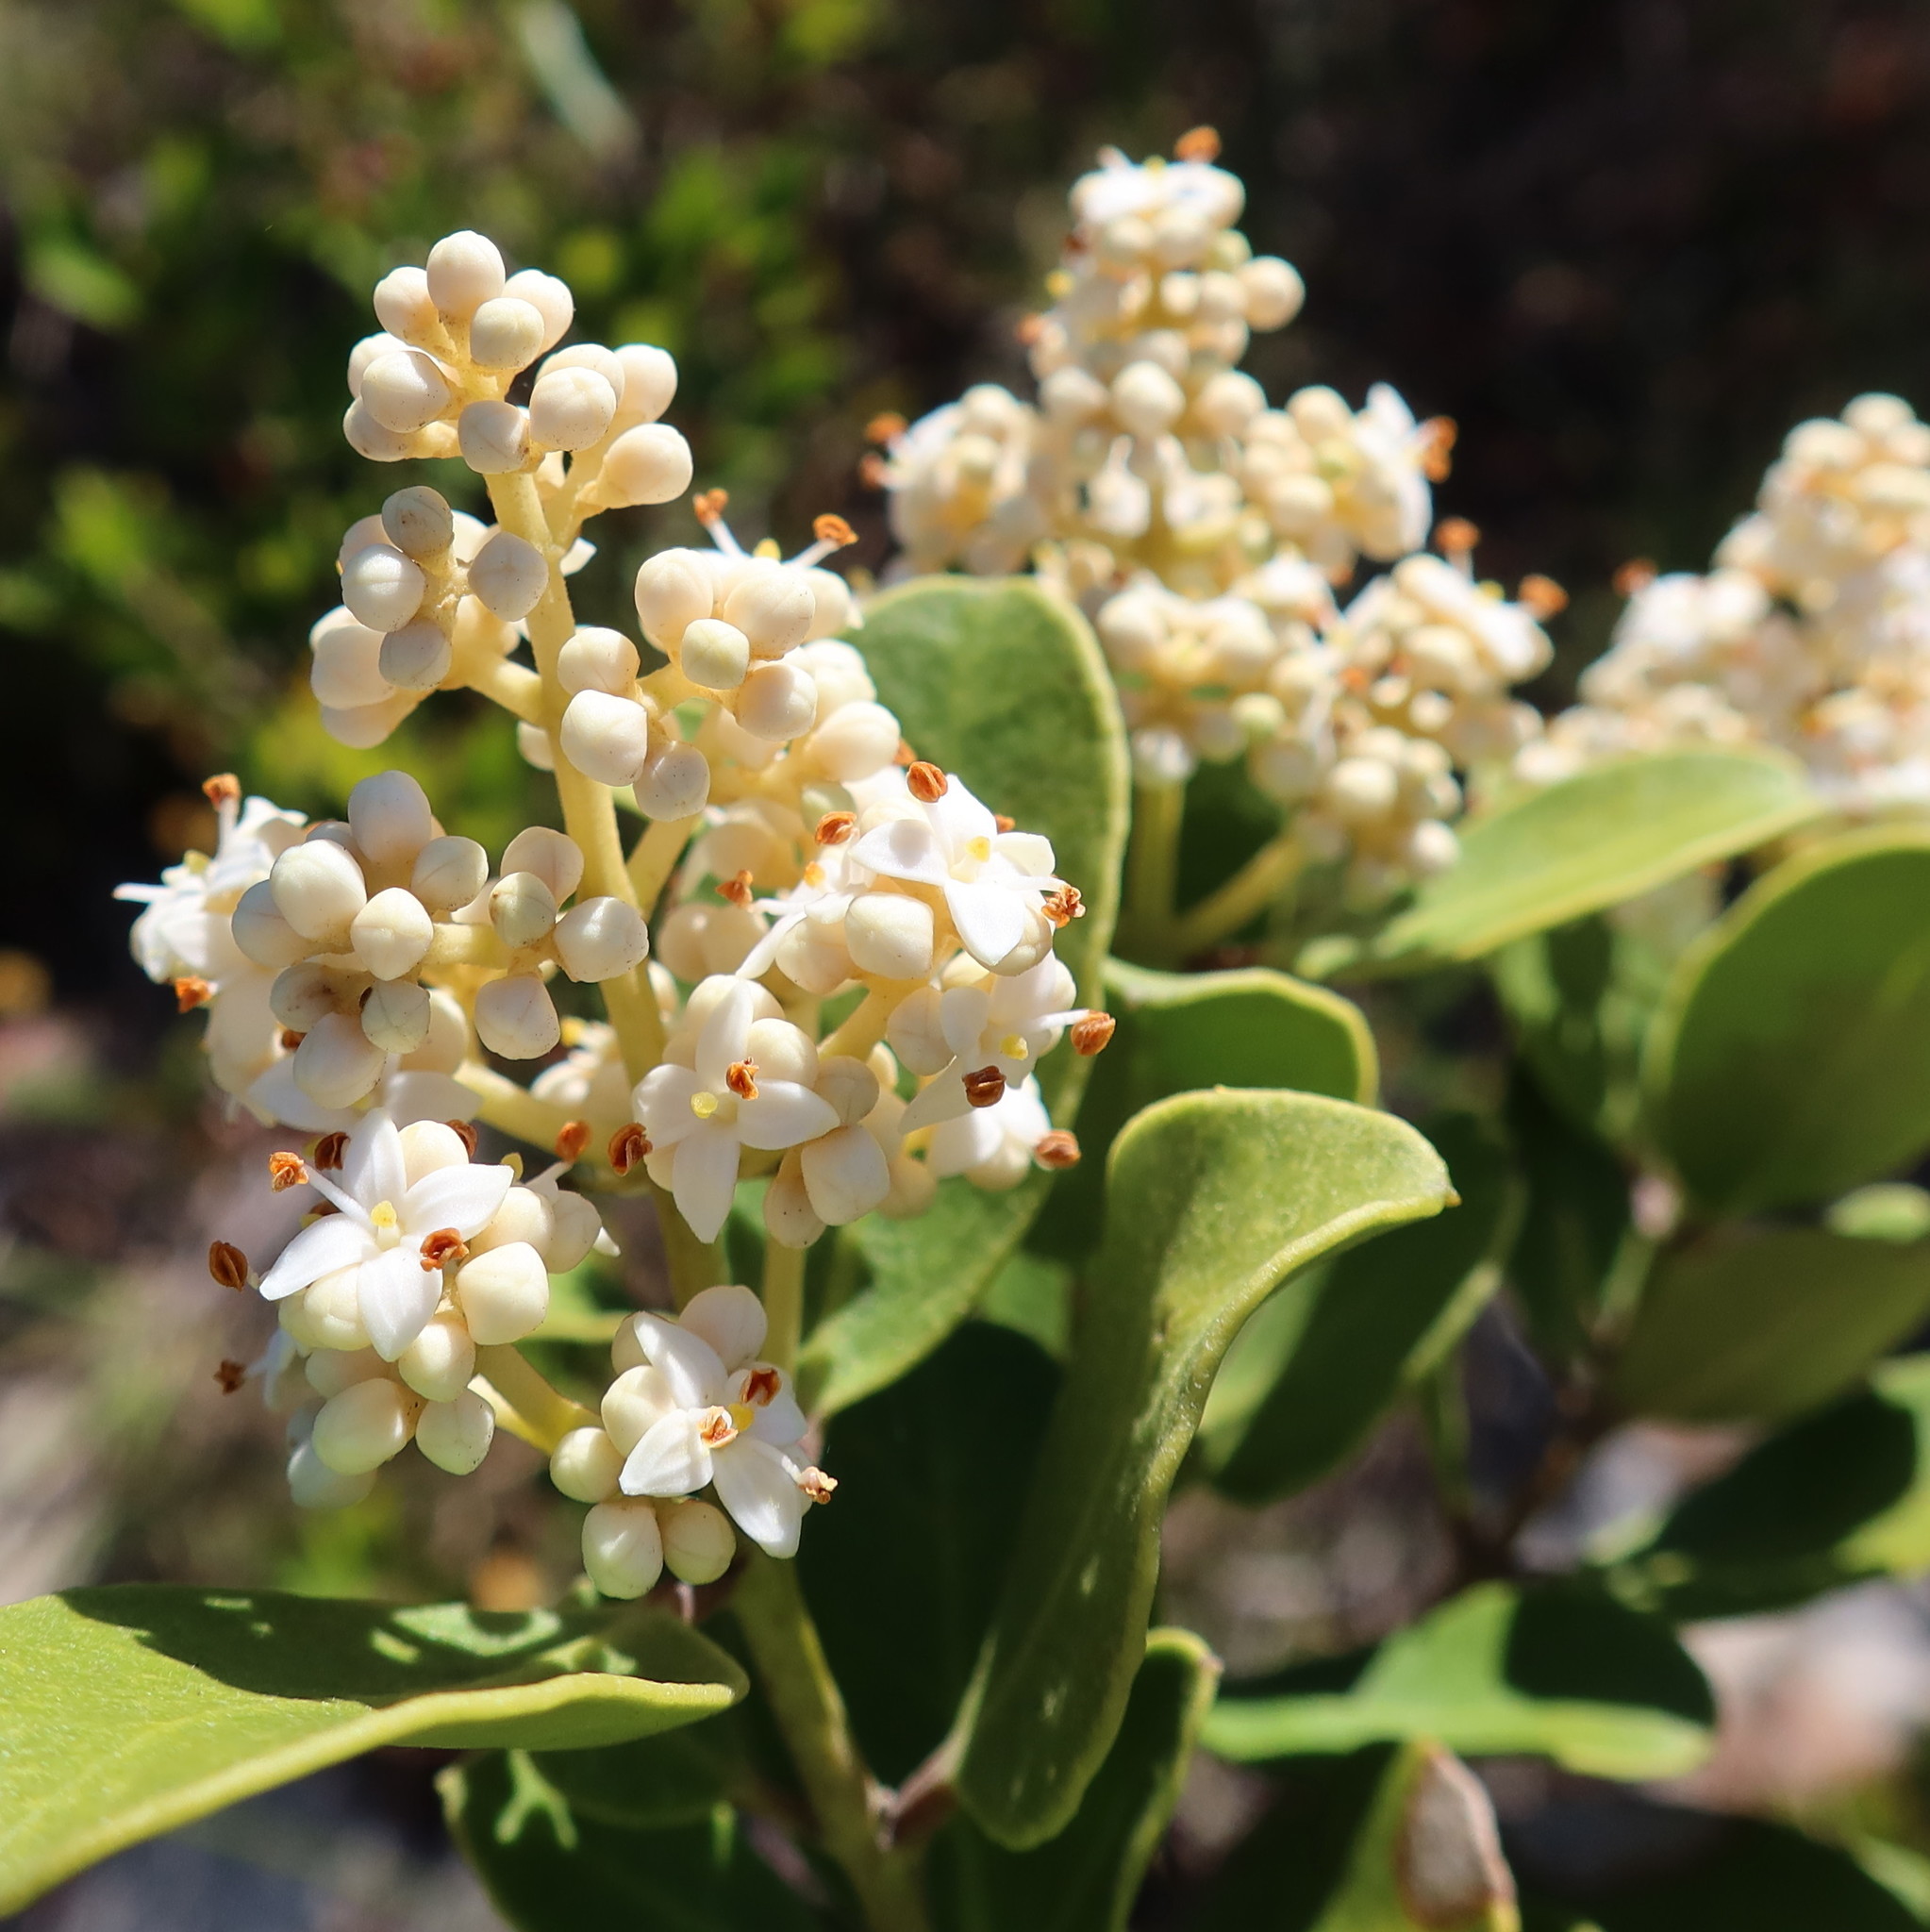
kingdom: Plantae
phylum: Tracheophyta
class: Magnoliopsida
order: Lamiales
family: Oleaceae
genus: Olea
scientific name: Olea capensis
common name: Black ironwood
